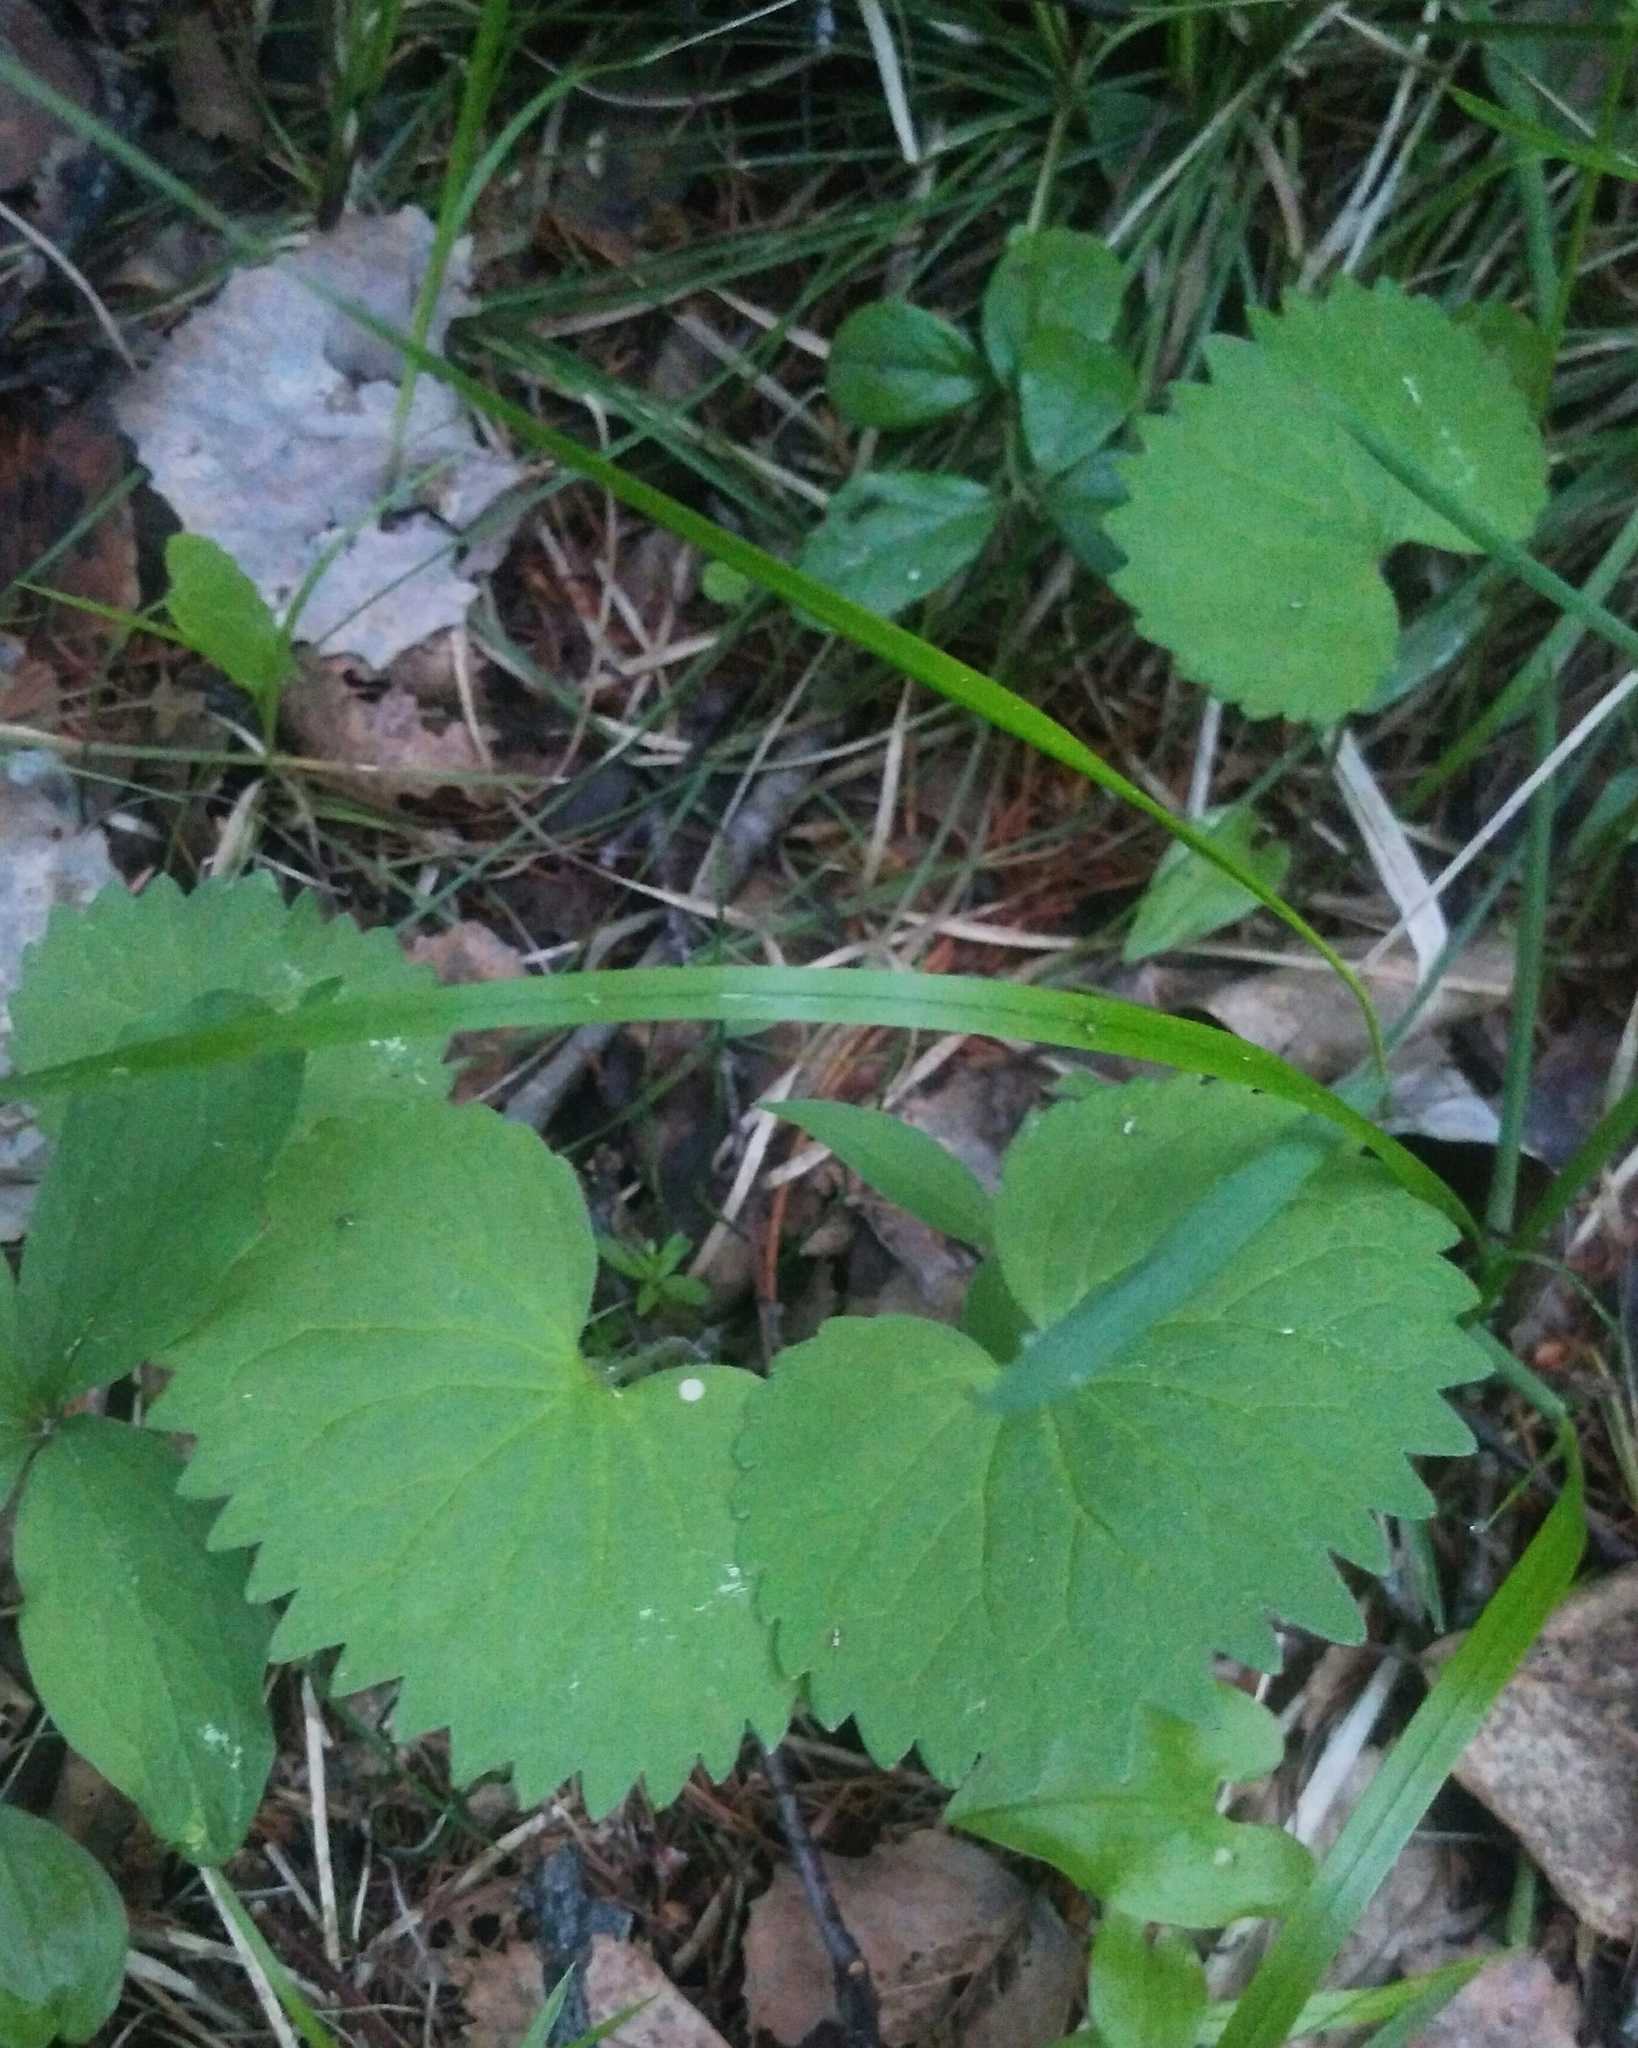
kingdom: Plantae
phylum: Tracheophyta
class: Magnoliopsida
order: Malpighiales
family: Violaceae
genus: Viola
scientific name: Viola uniflora
